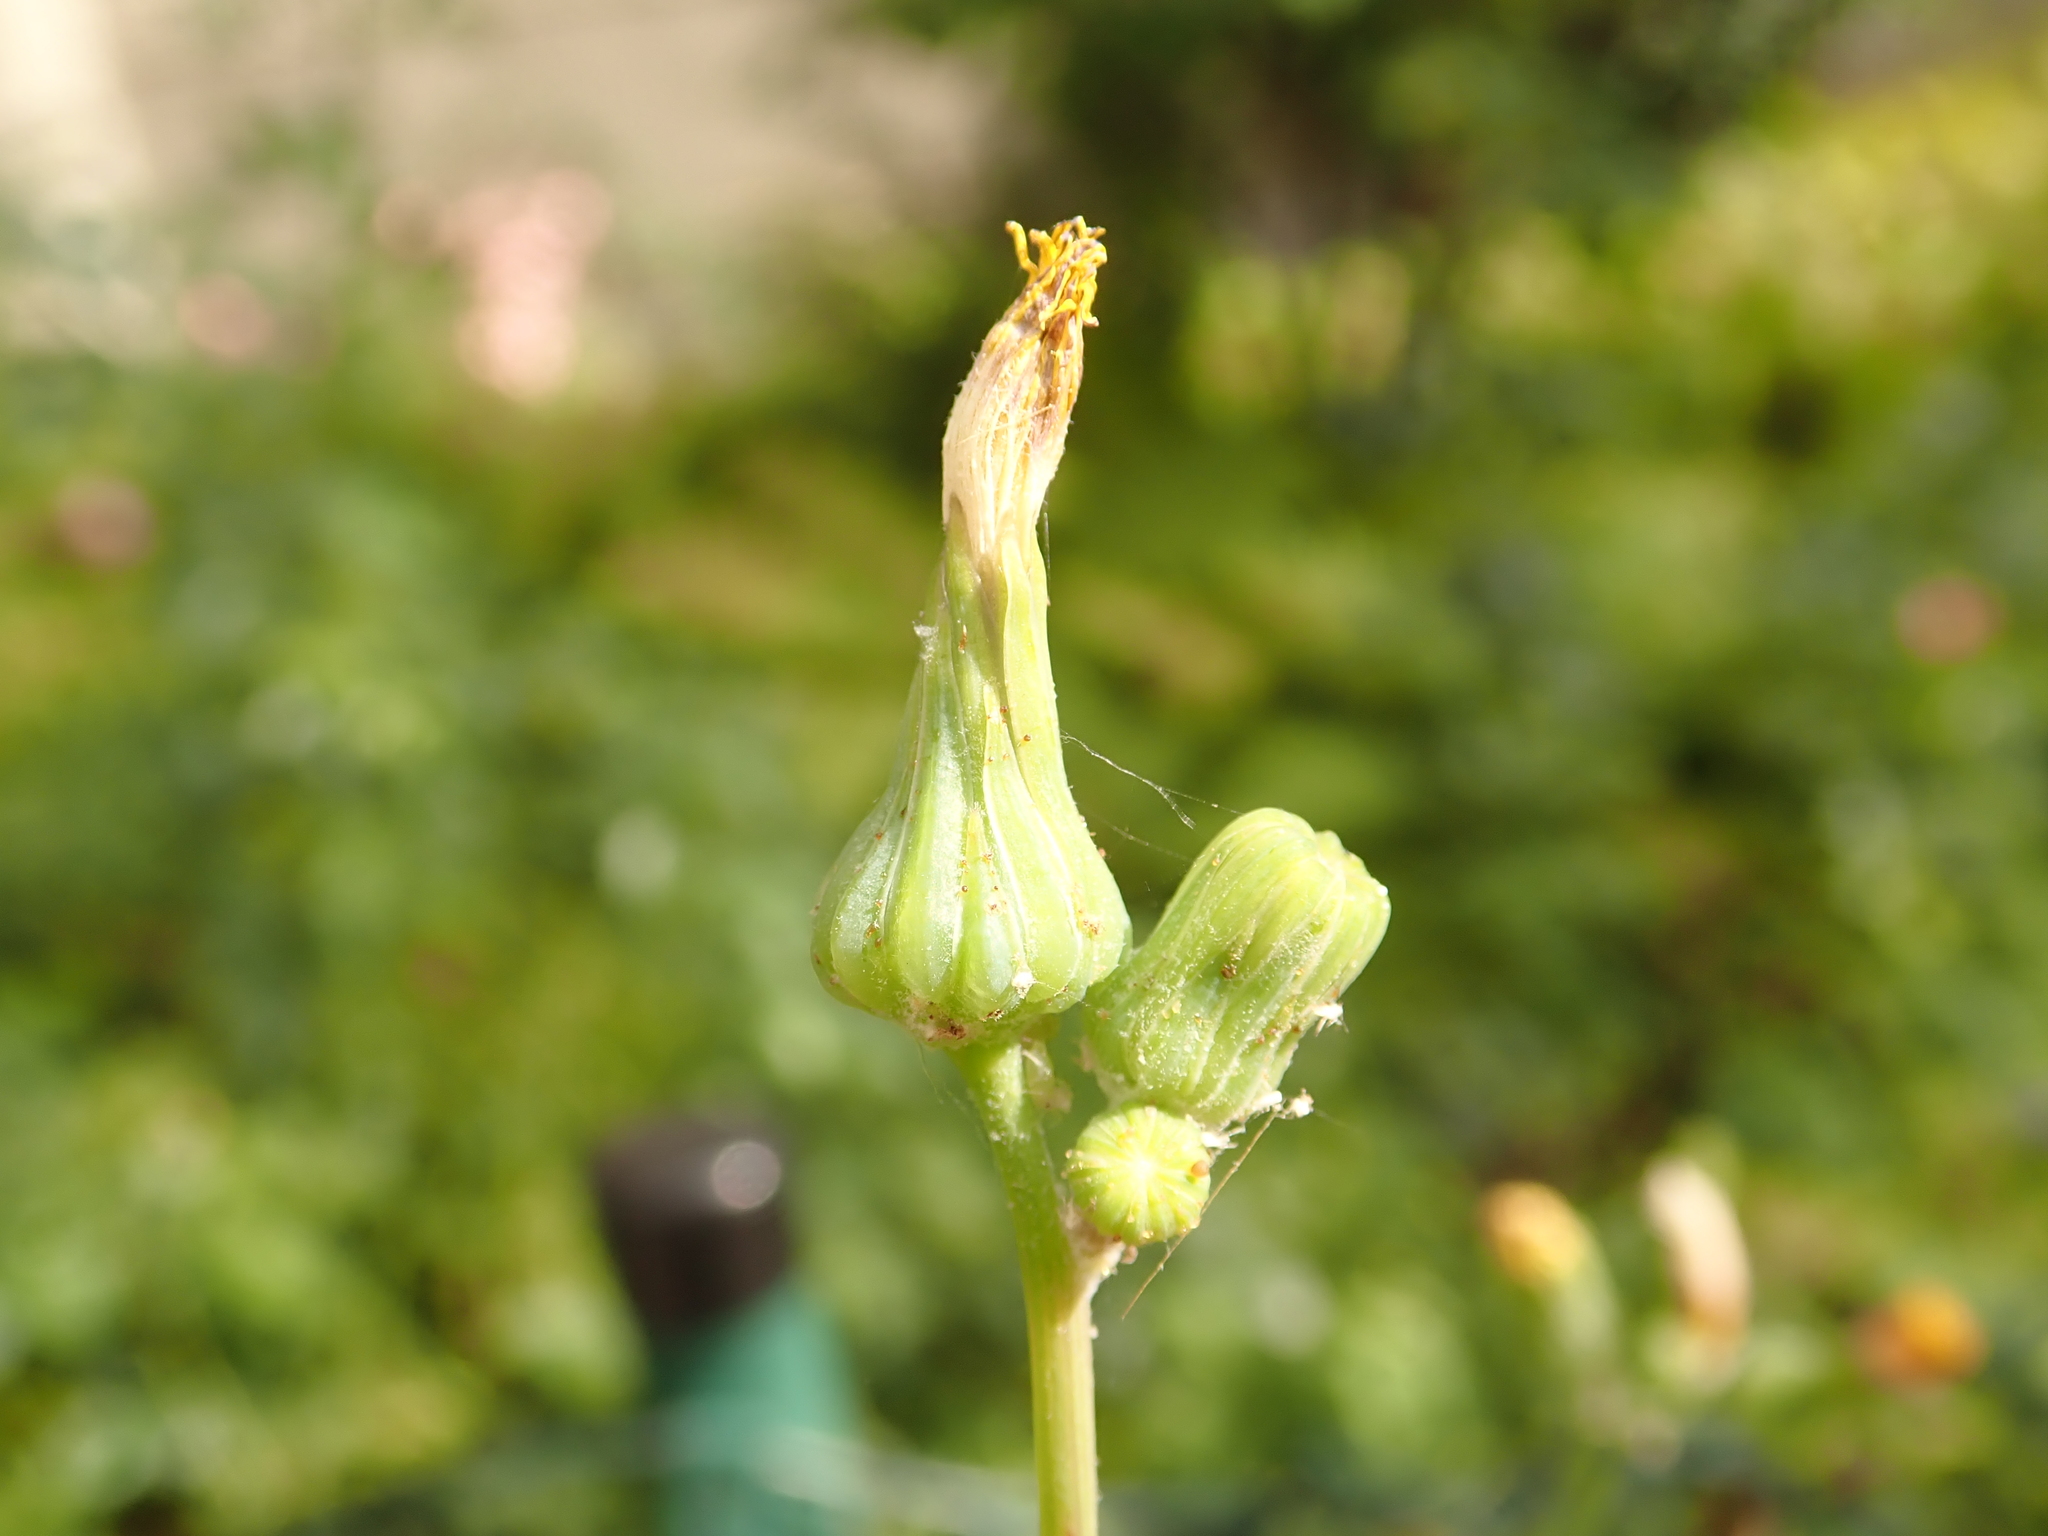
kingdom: Plantae
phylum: Tracheophyta
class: Magnoliopsida
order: Asterales
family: Asteraceae
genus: Sonchus
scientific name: Sonchus oleraceus
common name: Common sowthistle
